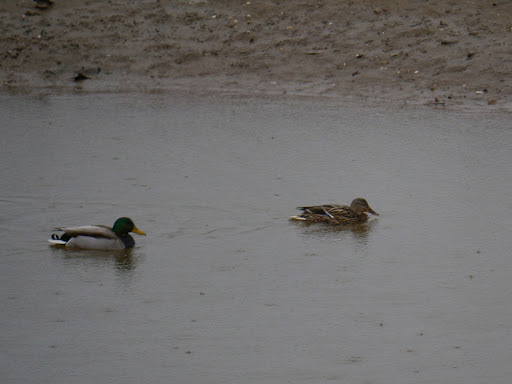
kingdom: Animalia
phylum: Chordata
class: Aves
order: Anseriformes
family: Anatidae
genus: Anas
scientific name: Anas platyrhynchos
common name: Mallard
